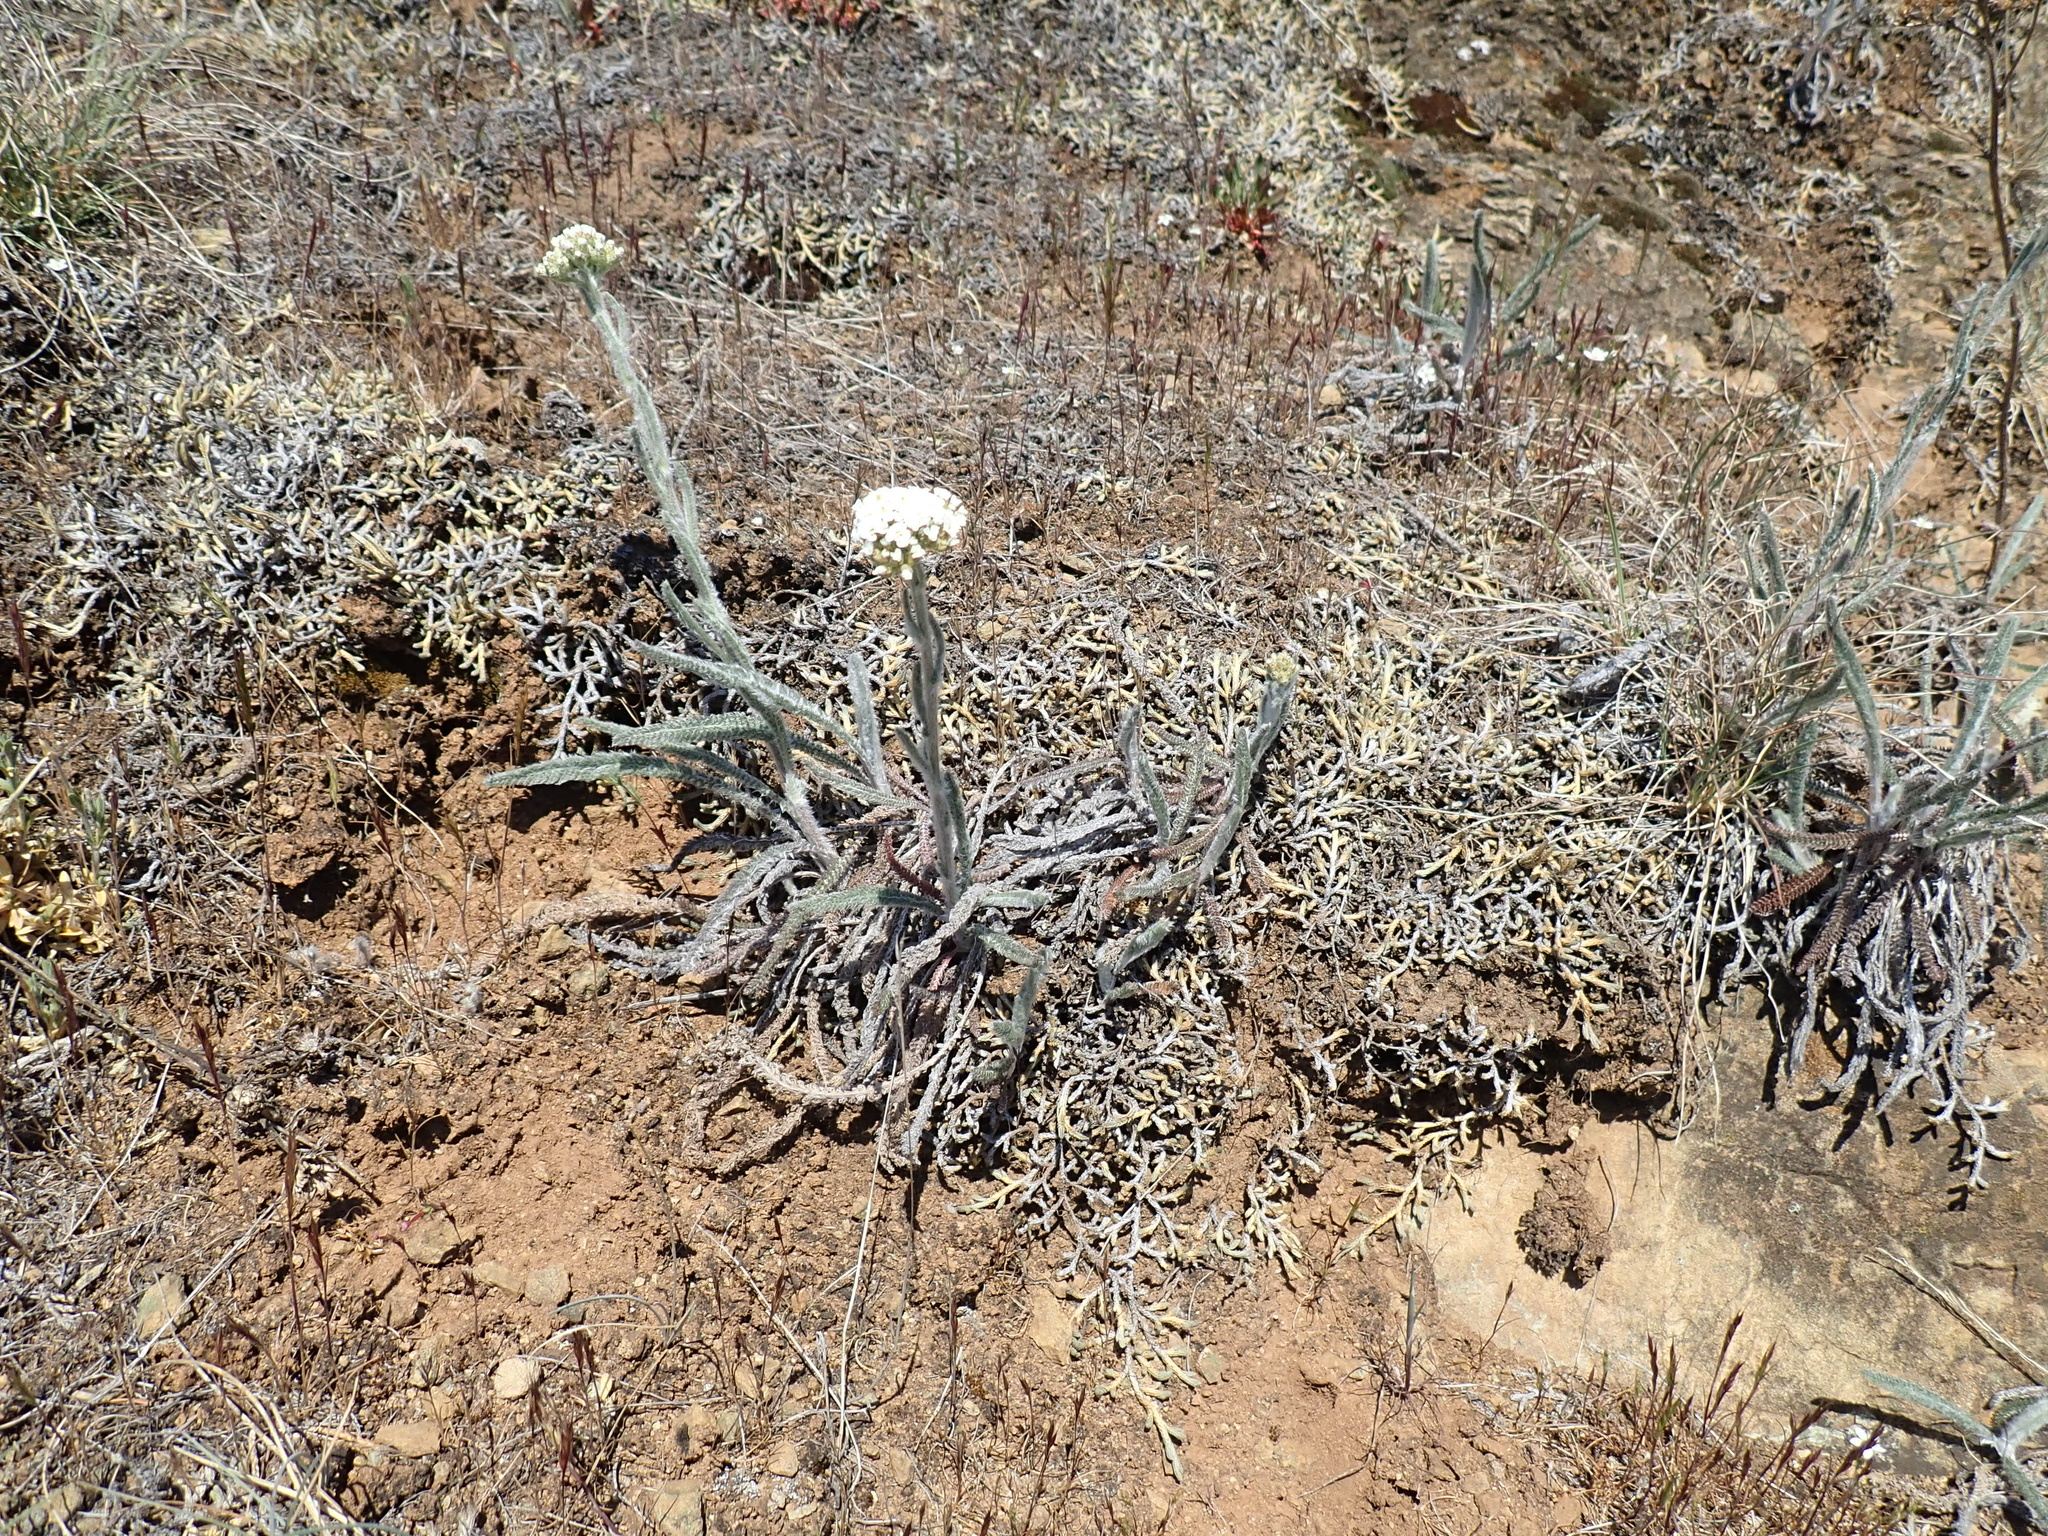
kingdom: Plantae
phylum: Tracheophyta
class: Magnoliopsida
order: Asterales
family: Asteraceae
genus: Achillea
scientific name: Achillea millefolium
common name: Yarrow
